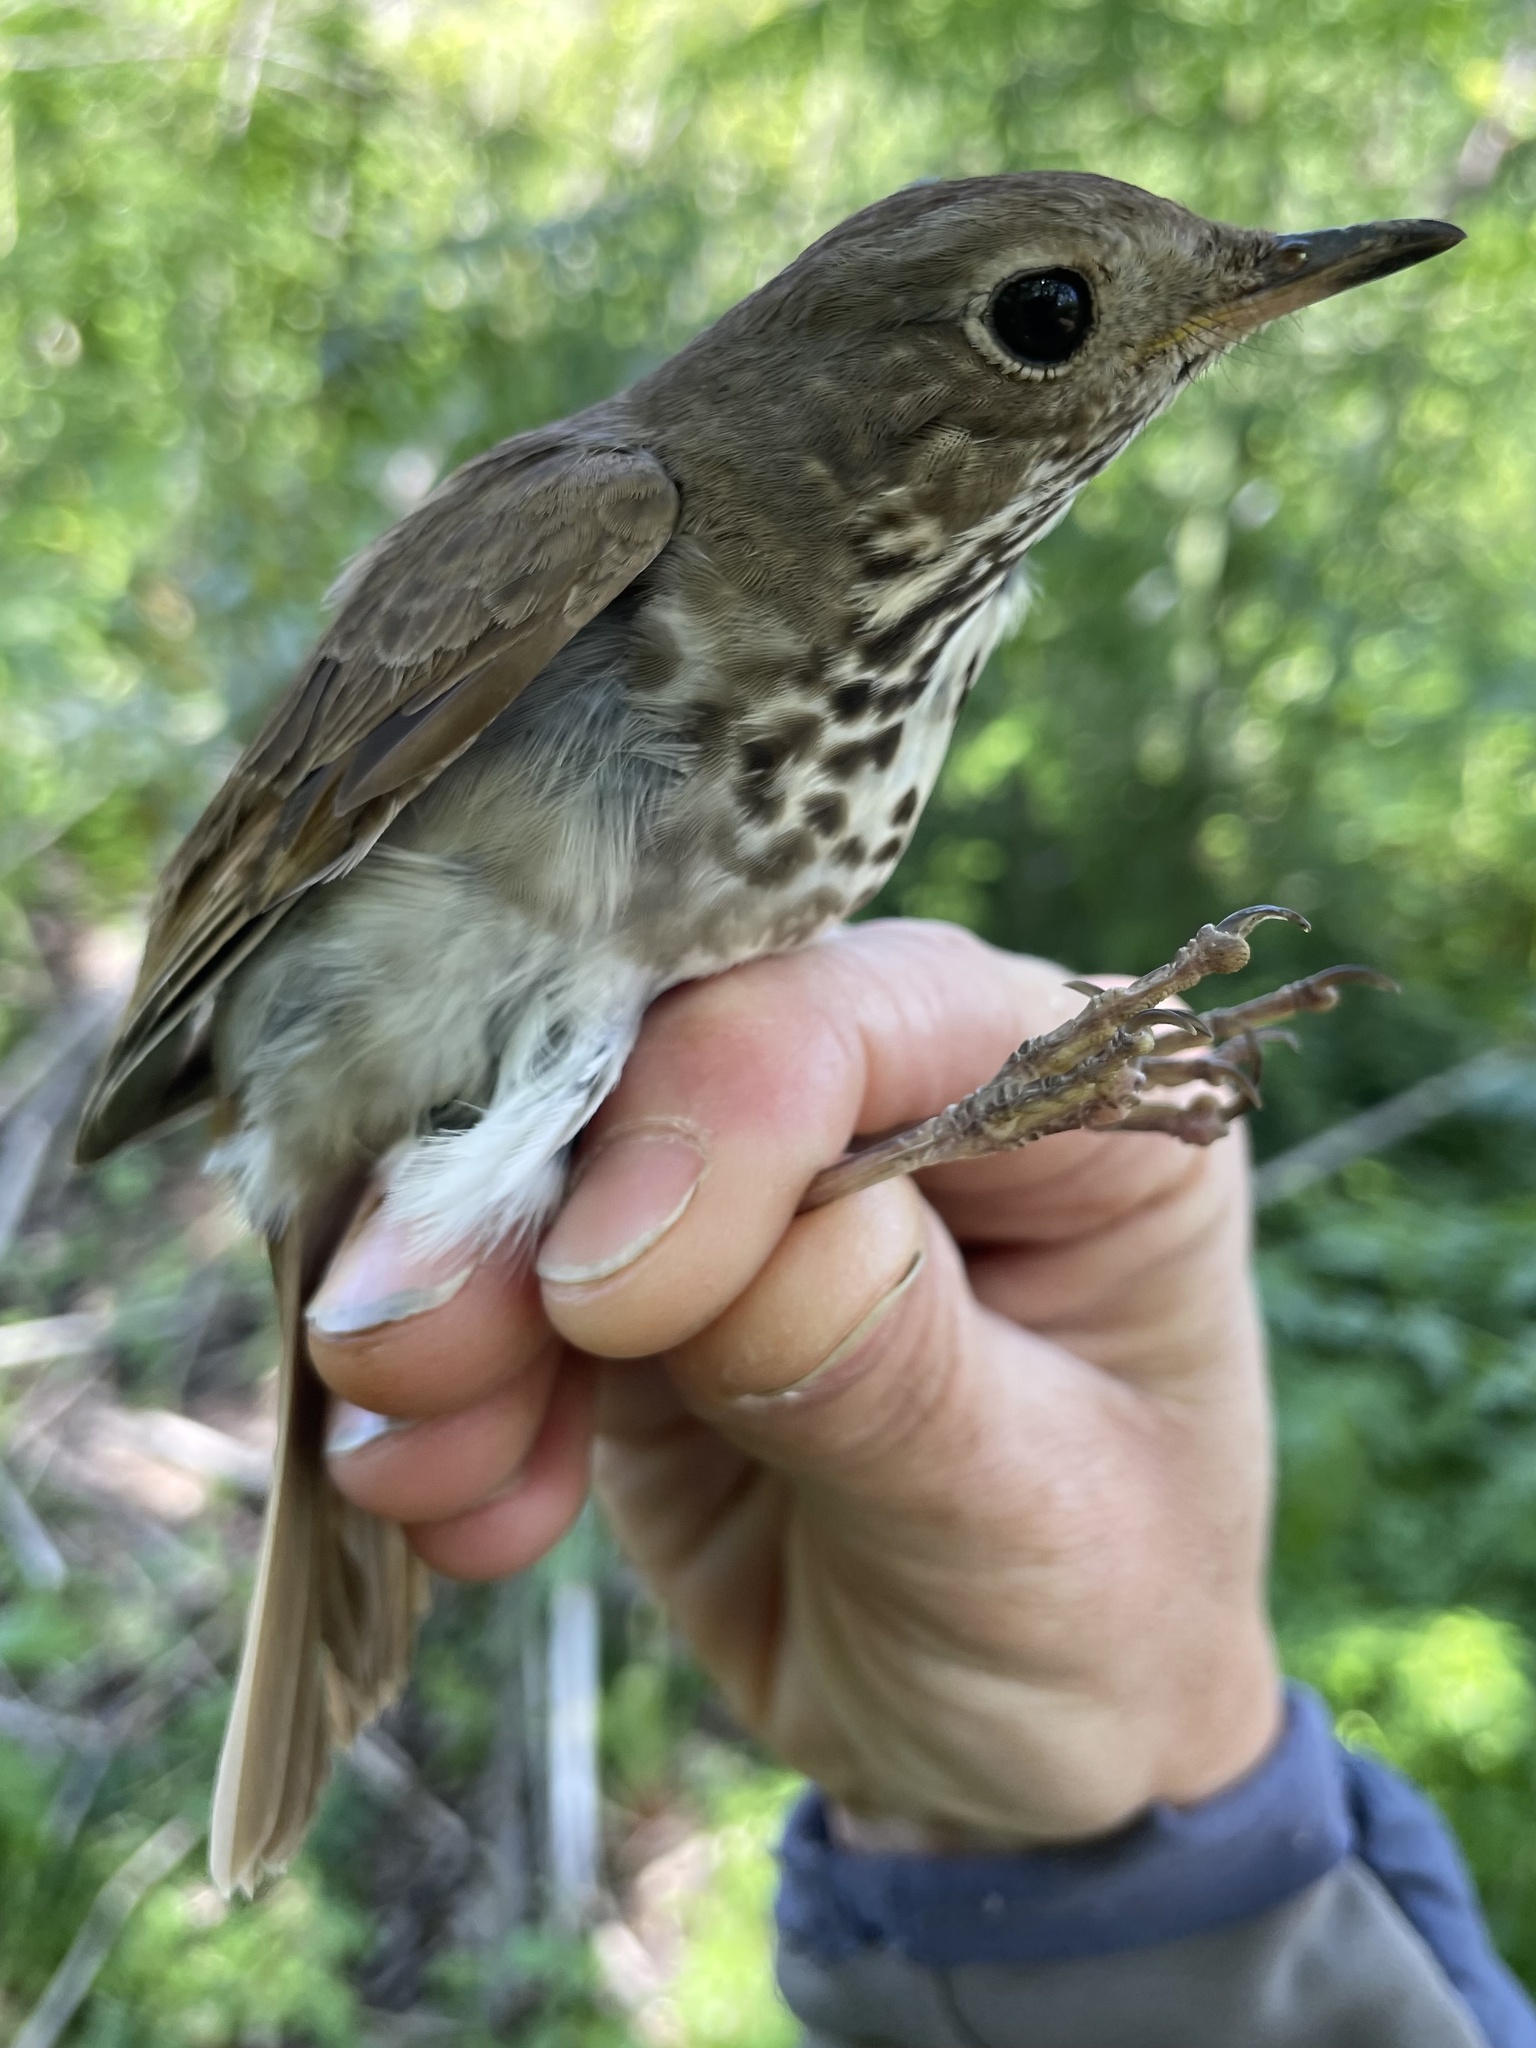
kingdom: Animalia
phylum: Chordata
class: Aves
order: Passeriformes
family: Turdidae
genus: Catharus
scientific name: Catharus guttatus
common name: Hermit thrush
